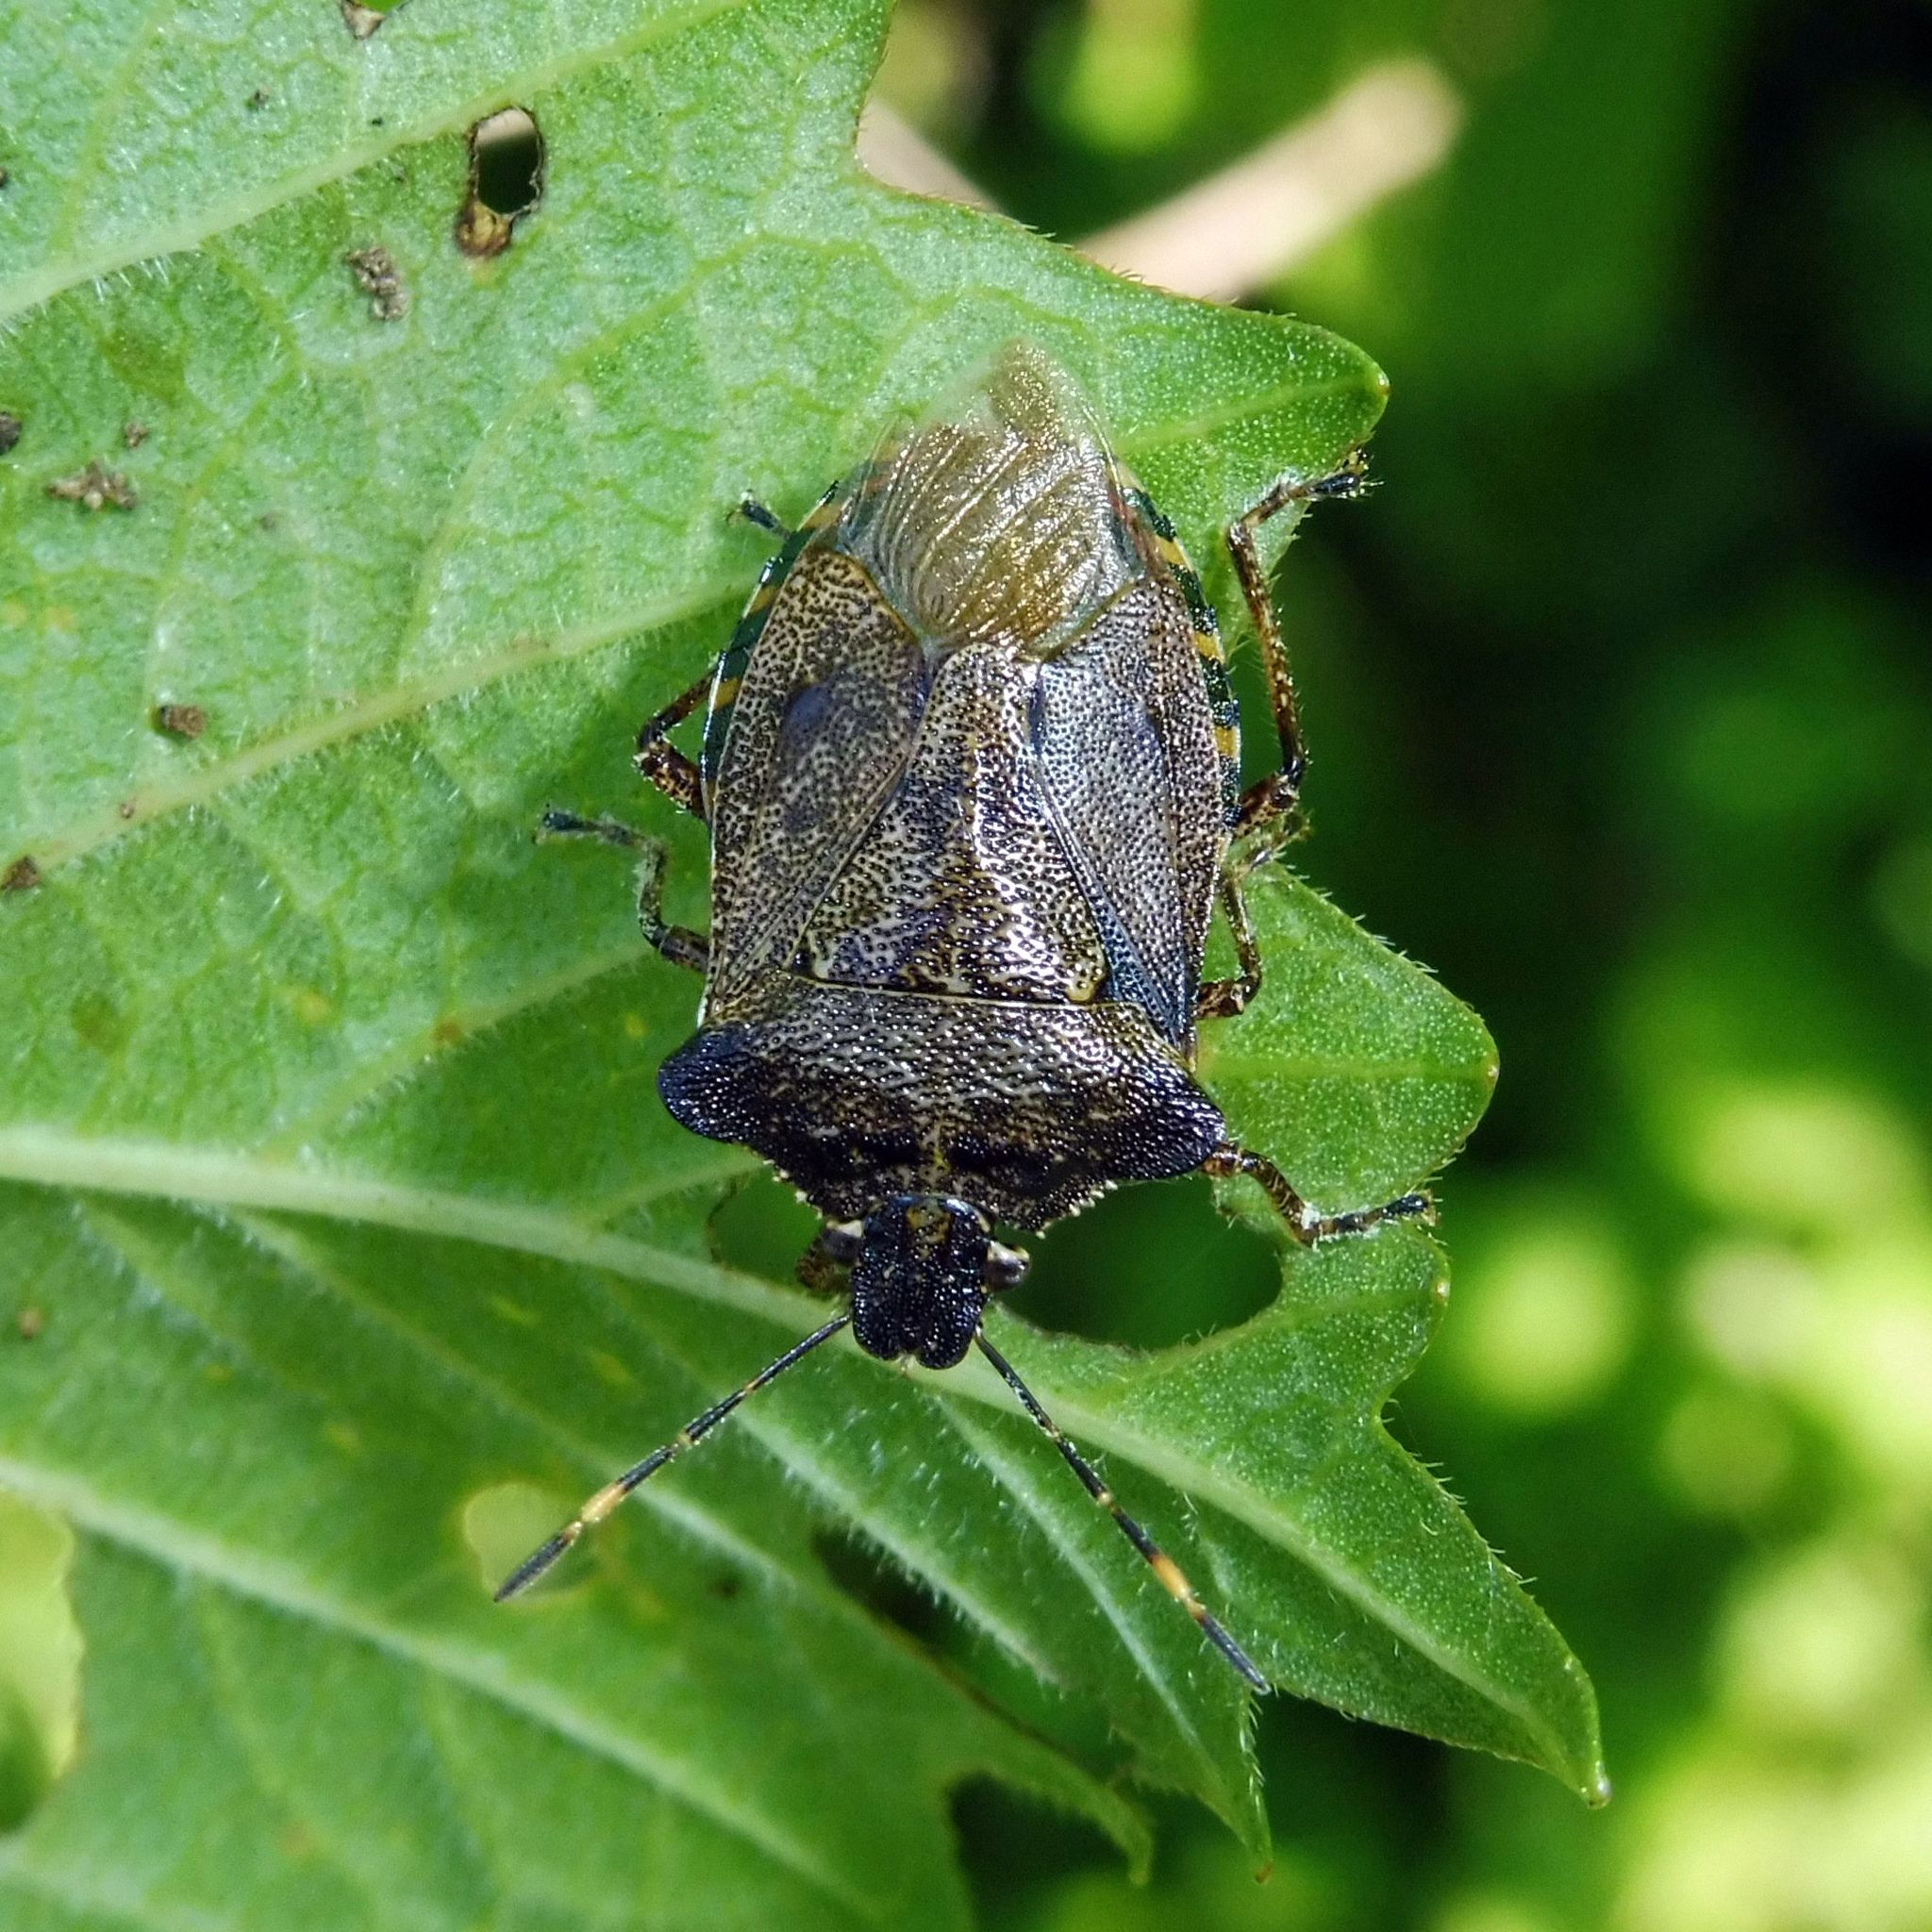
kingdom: Animalia
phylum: Arthropoda
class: Insecta
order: Hemiptera
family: Pentatomidae
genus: Troilus
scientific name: Troilus luridus
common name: Bronze shieldbug
